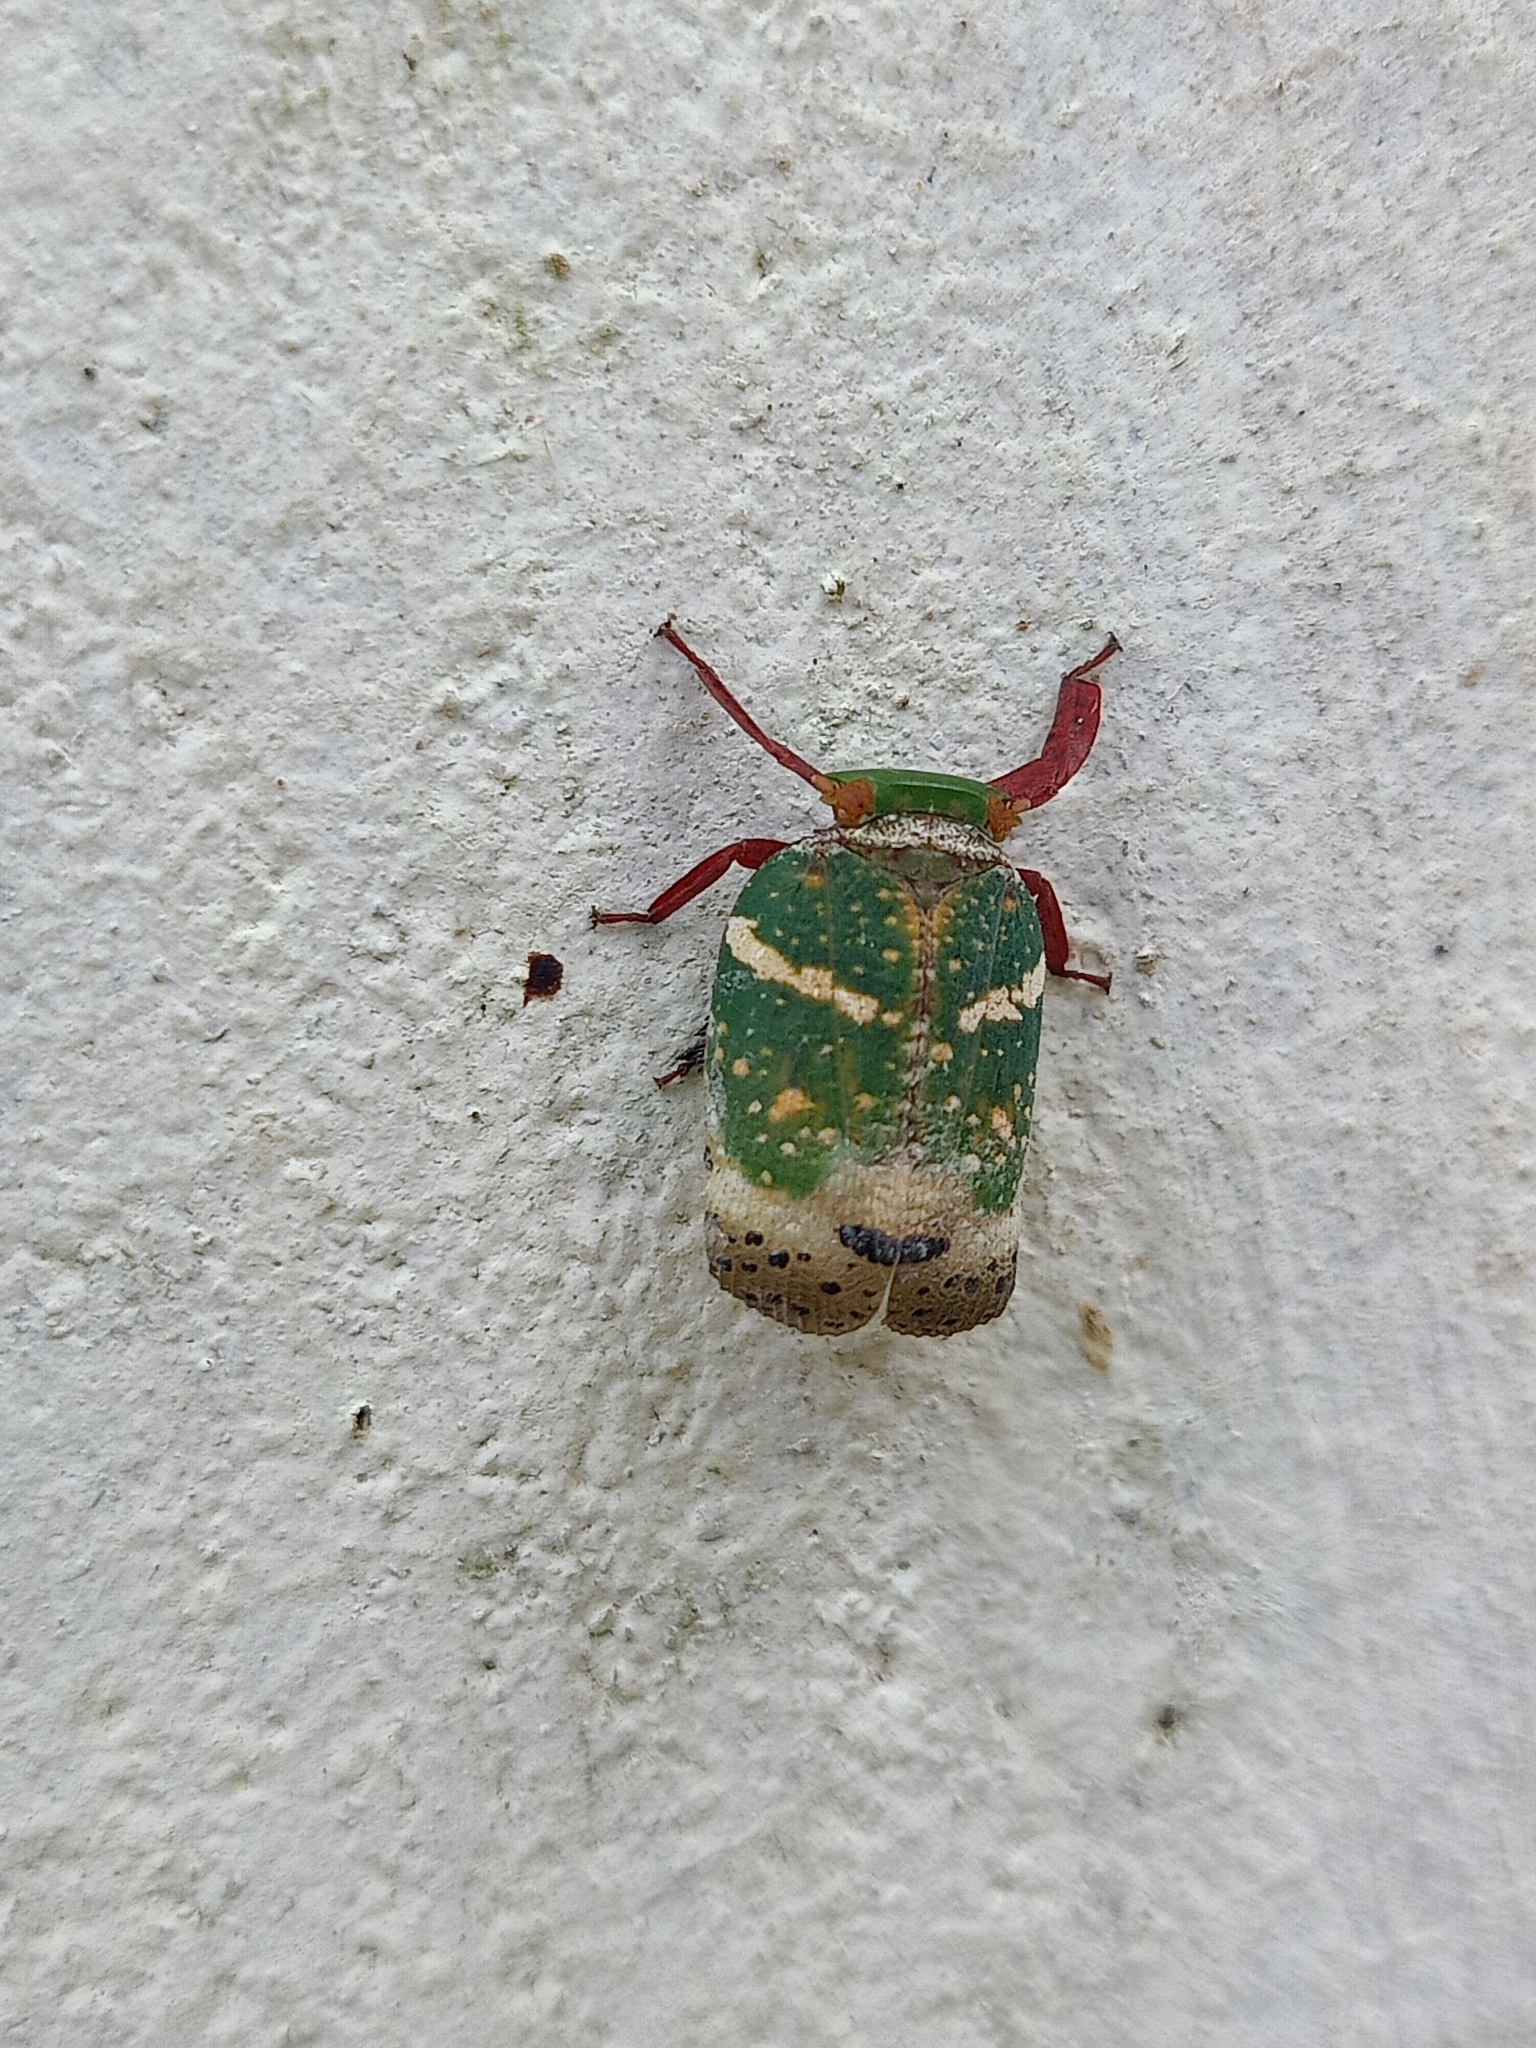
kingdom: Animalia
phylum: Arthropoda
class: Insecta
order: Hemiptera
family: Eurybrachidae
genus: Eurybrachys
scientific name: Eurybrachys tomentosa
